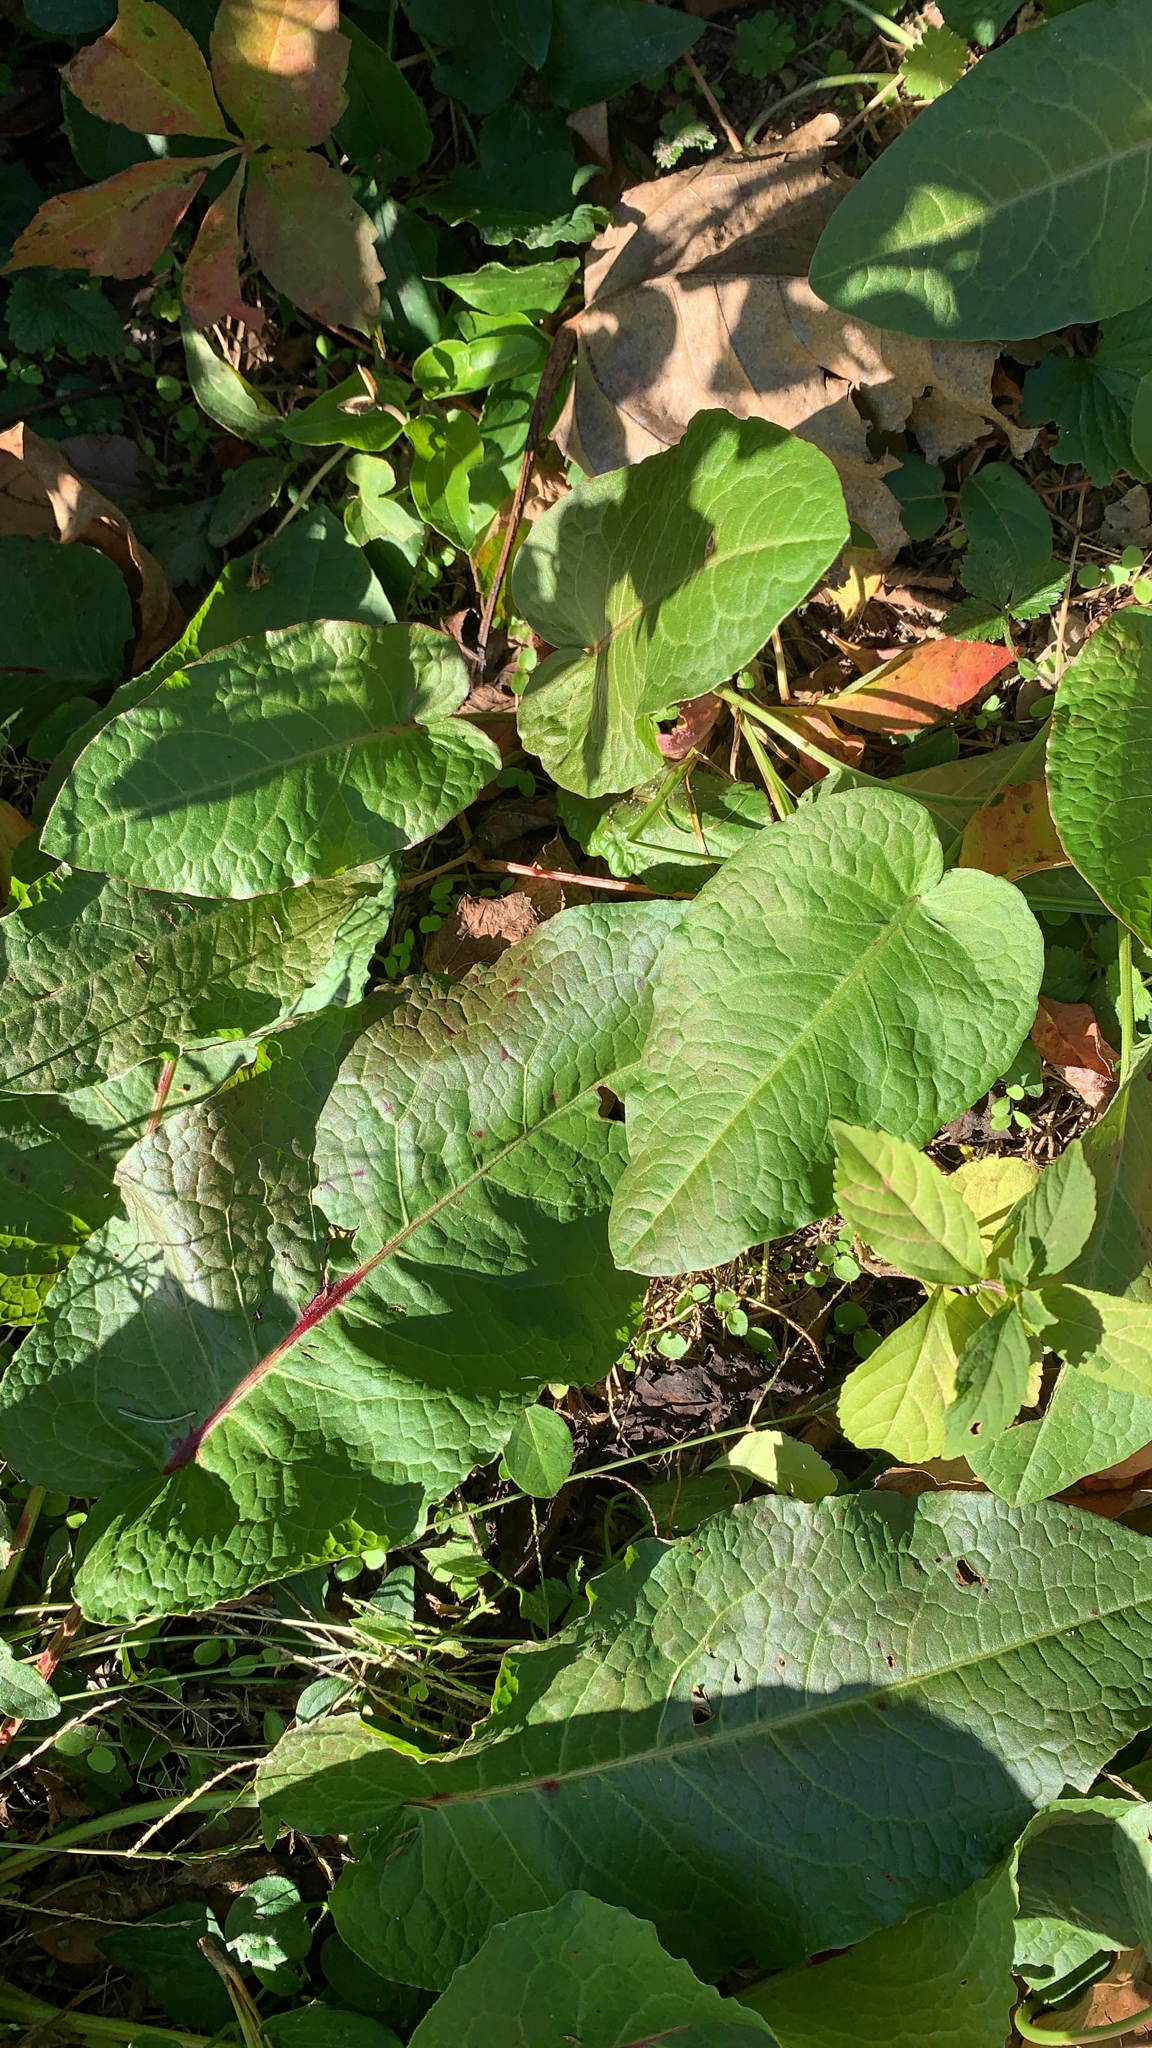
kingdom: Plantae
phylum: Tracheophyta
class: Magnoliopsida
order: Caryophyllales
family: Polygonaceae
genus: Rumex
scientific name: Rumex obtusifolius
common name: Bitter dock
